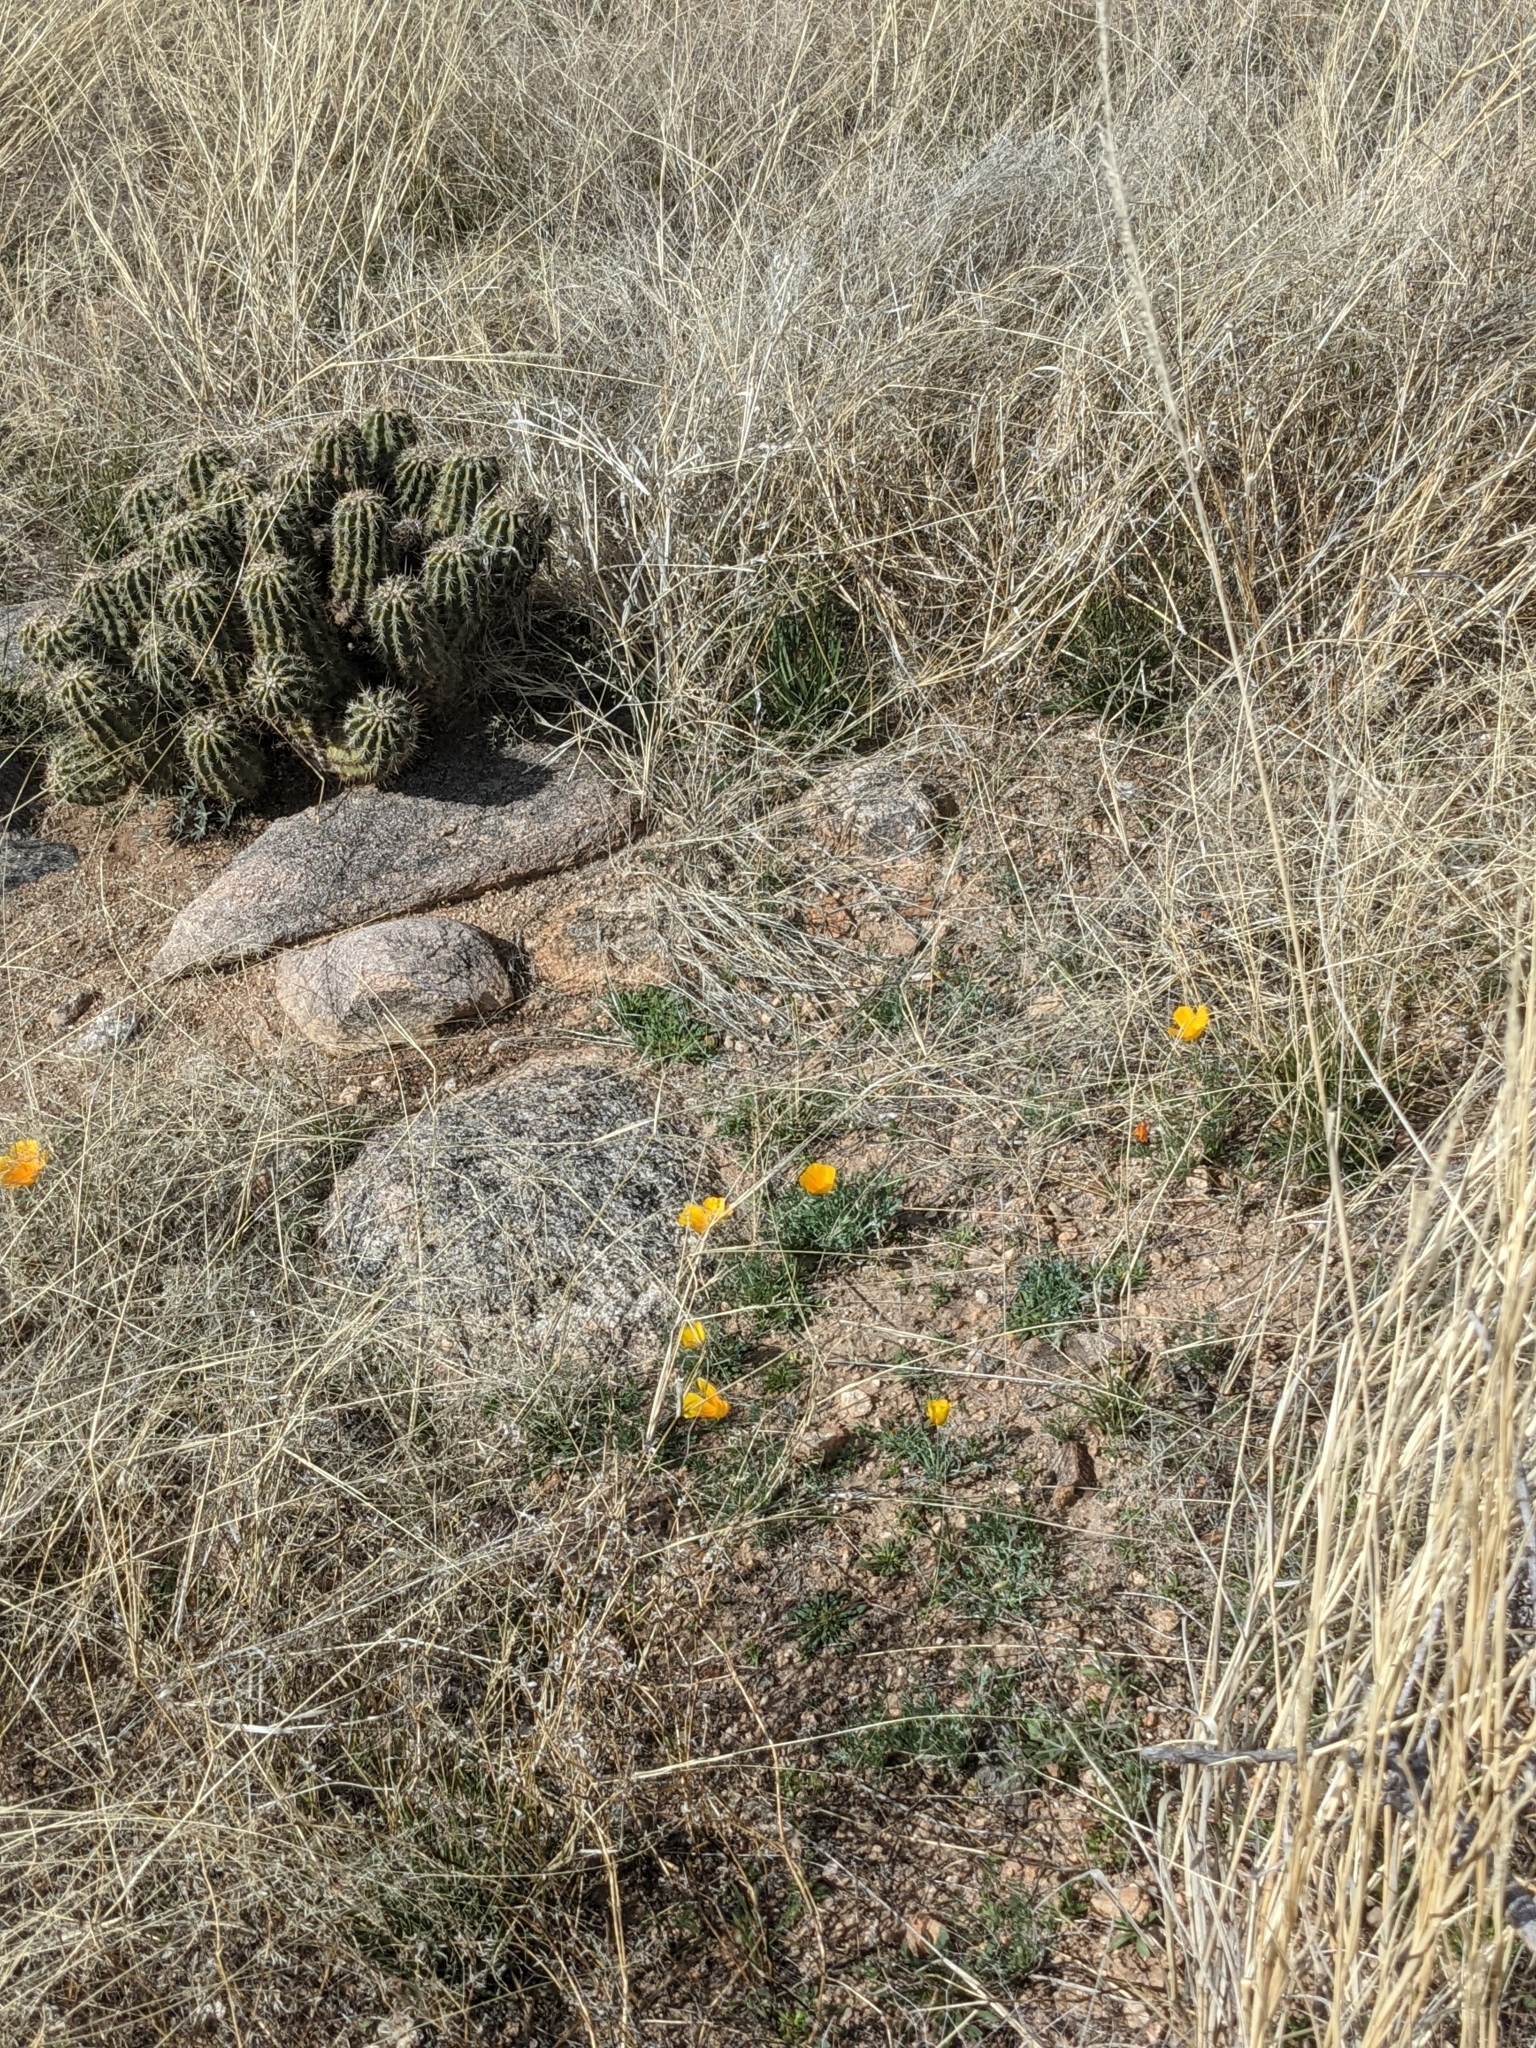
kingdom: Plantae
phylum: Tracheophyta
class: Magnoliopsida
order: Caryophyllales
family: Cactaceae
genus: Echinocereus
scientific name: Echinocereus fasciculatus
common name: Bundle hedgehog
